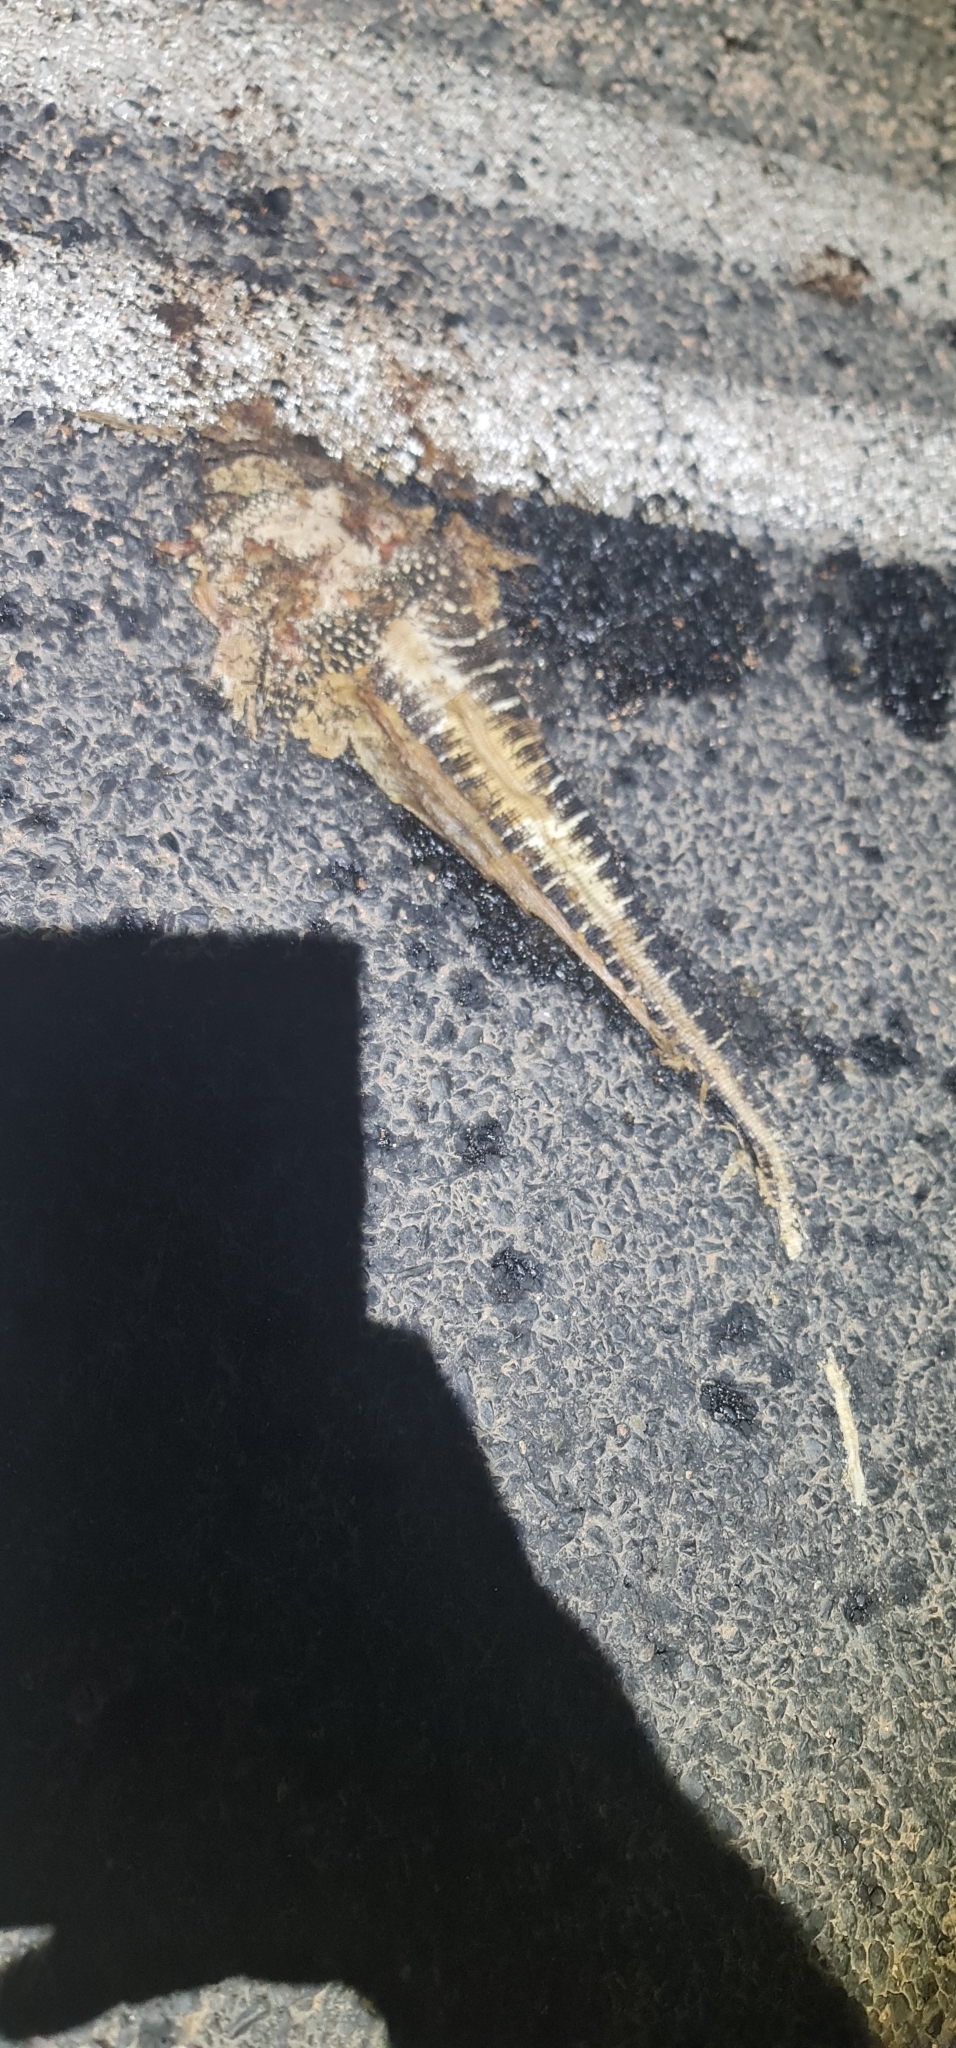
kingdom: Animalia
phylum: Chordata
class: Squamata
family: Varanidae
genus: Varanus
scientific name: Varanus gouldii
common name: Gould's goanna
